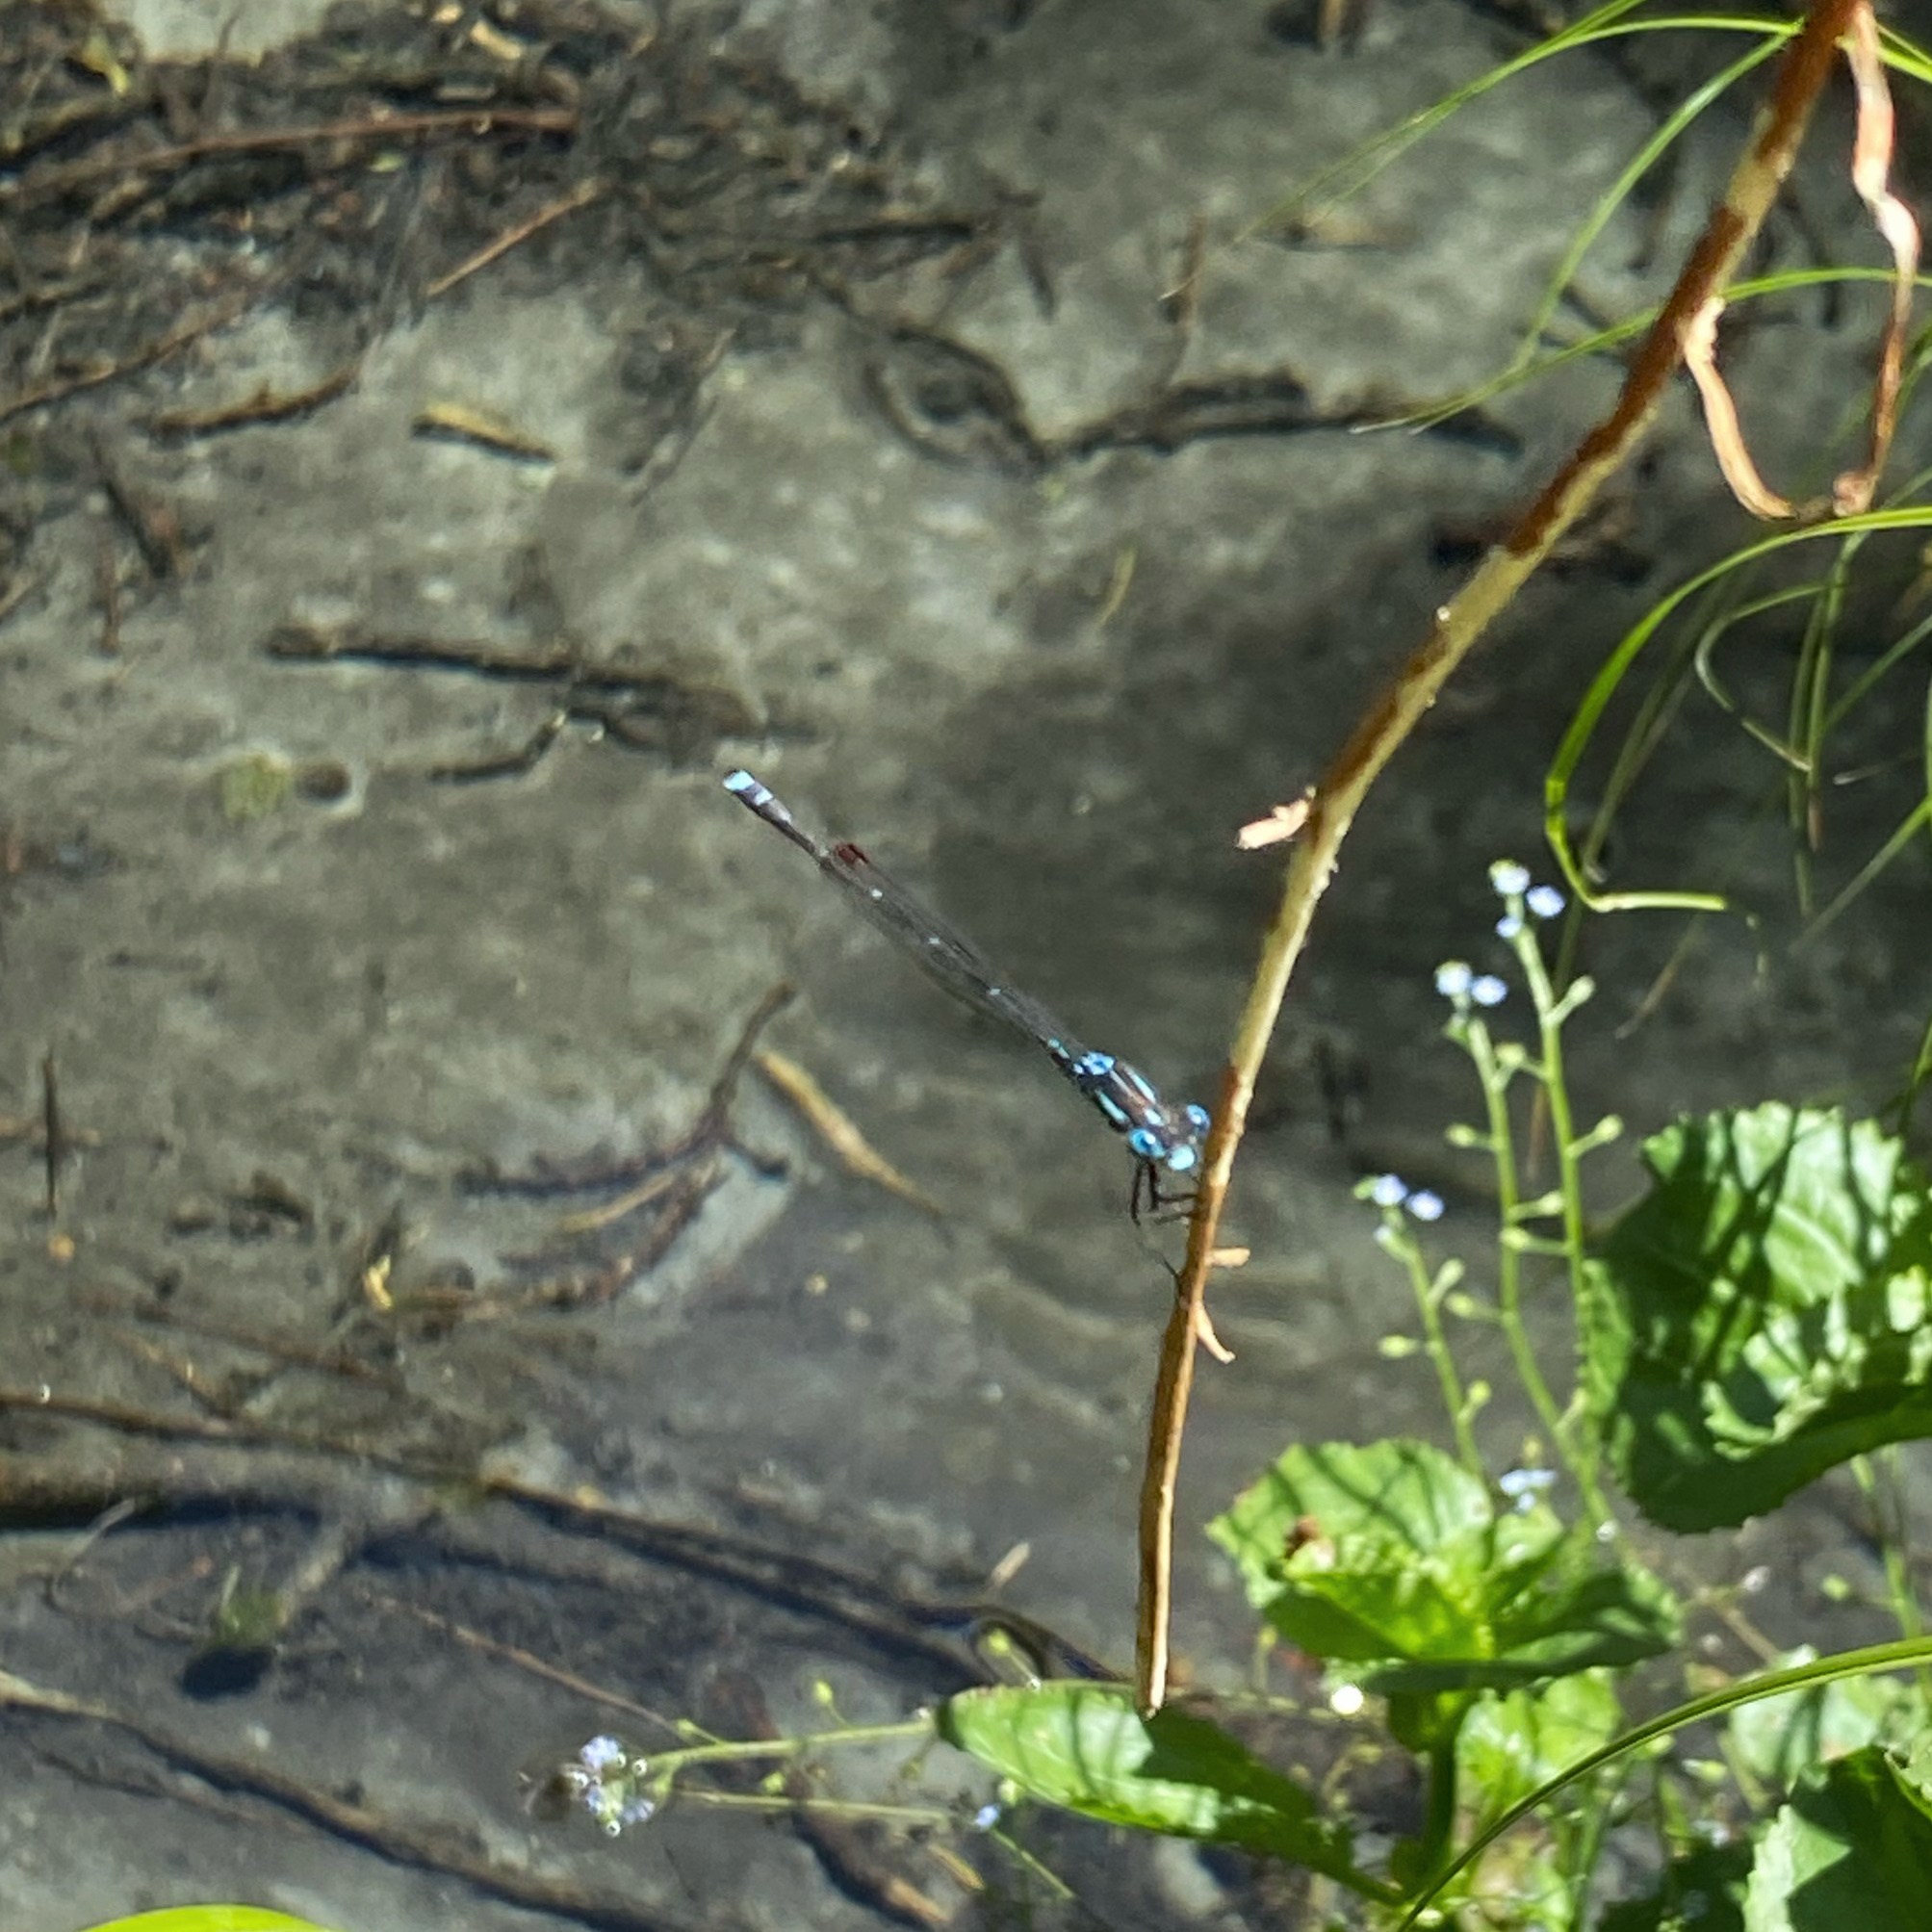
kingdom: Animalia
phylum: Arthropoda
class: Insecta
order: Odonata
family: Lestidae
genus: Austrolestes
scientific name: Austrolestes colensonis
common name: Blue damselfly
